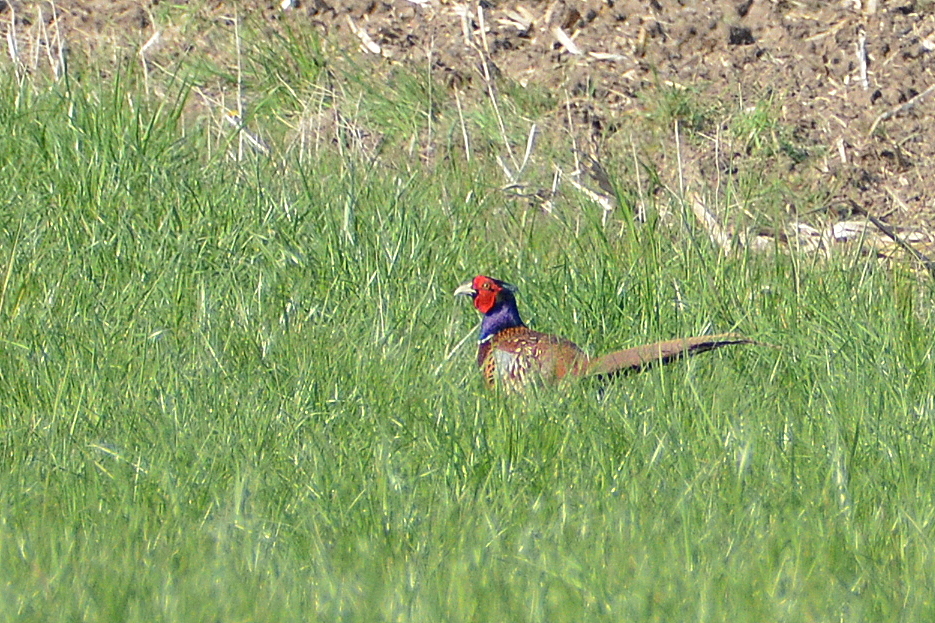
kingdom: Animalia
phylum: Chordata
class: Aves
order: Galliformes
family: Phasianidae
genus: Phasianus
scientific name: Phasianus colchicus
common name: Common pheasant
